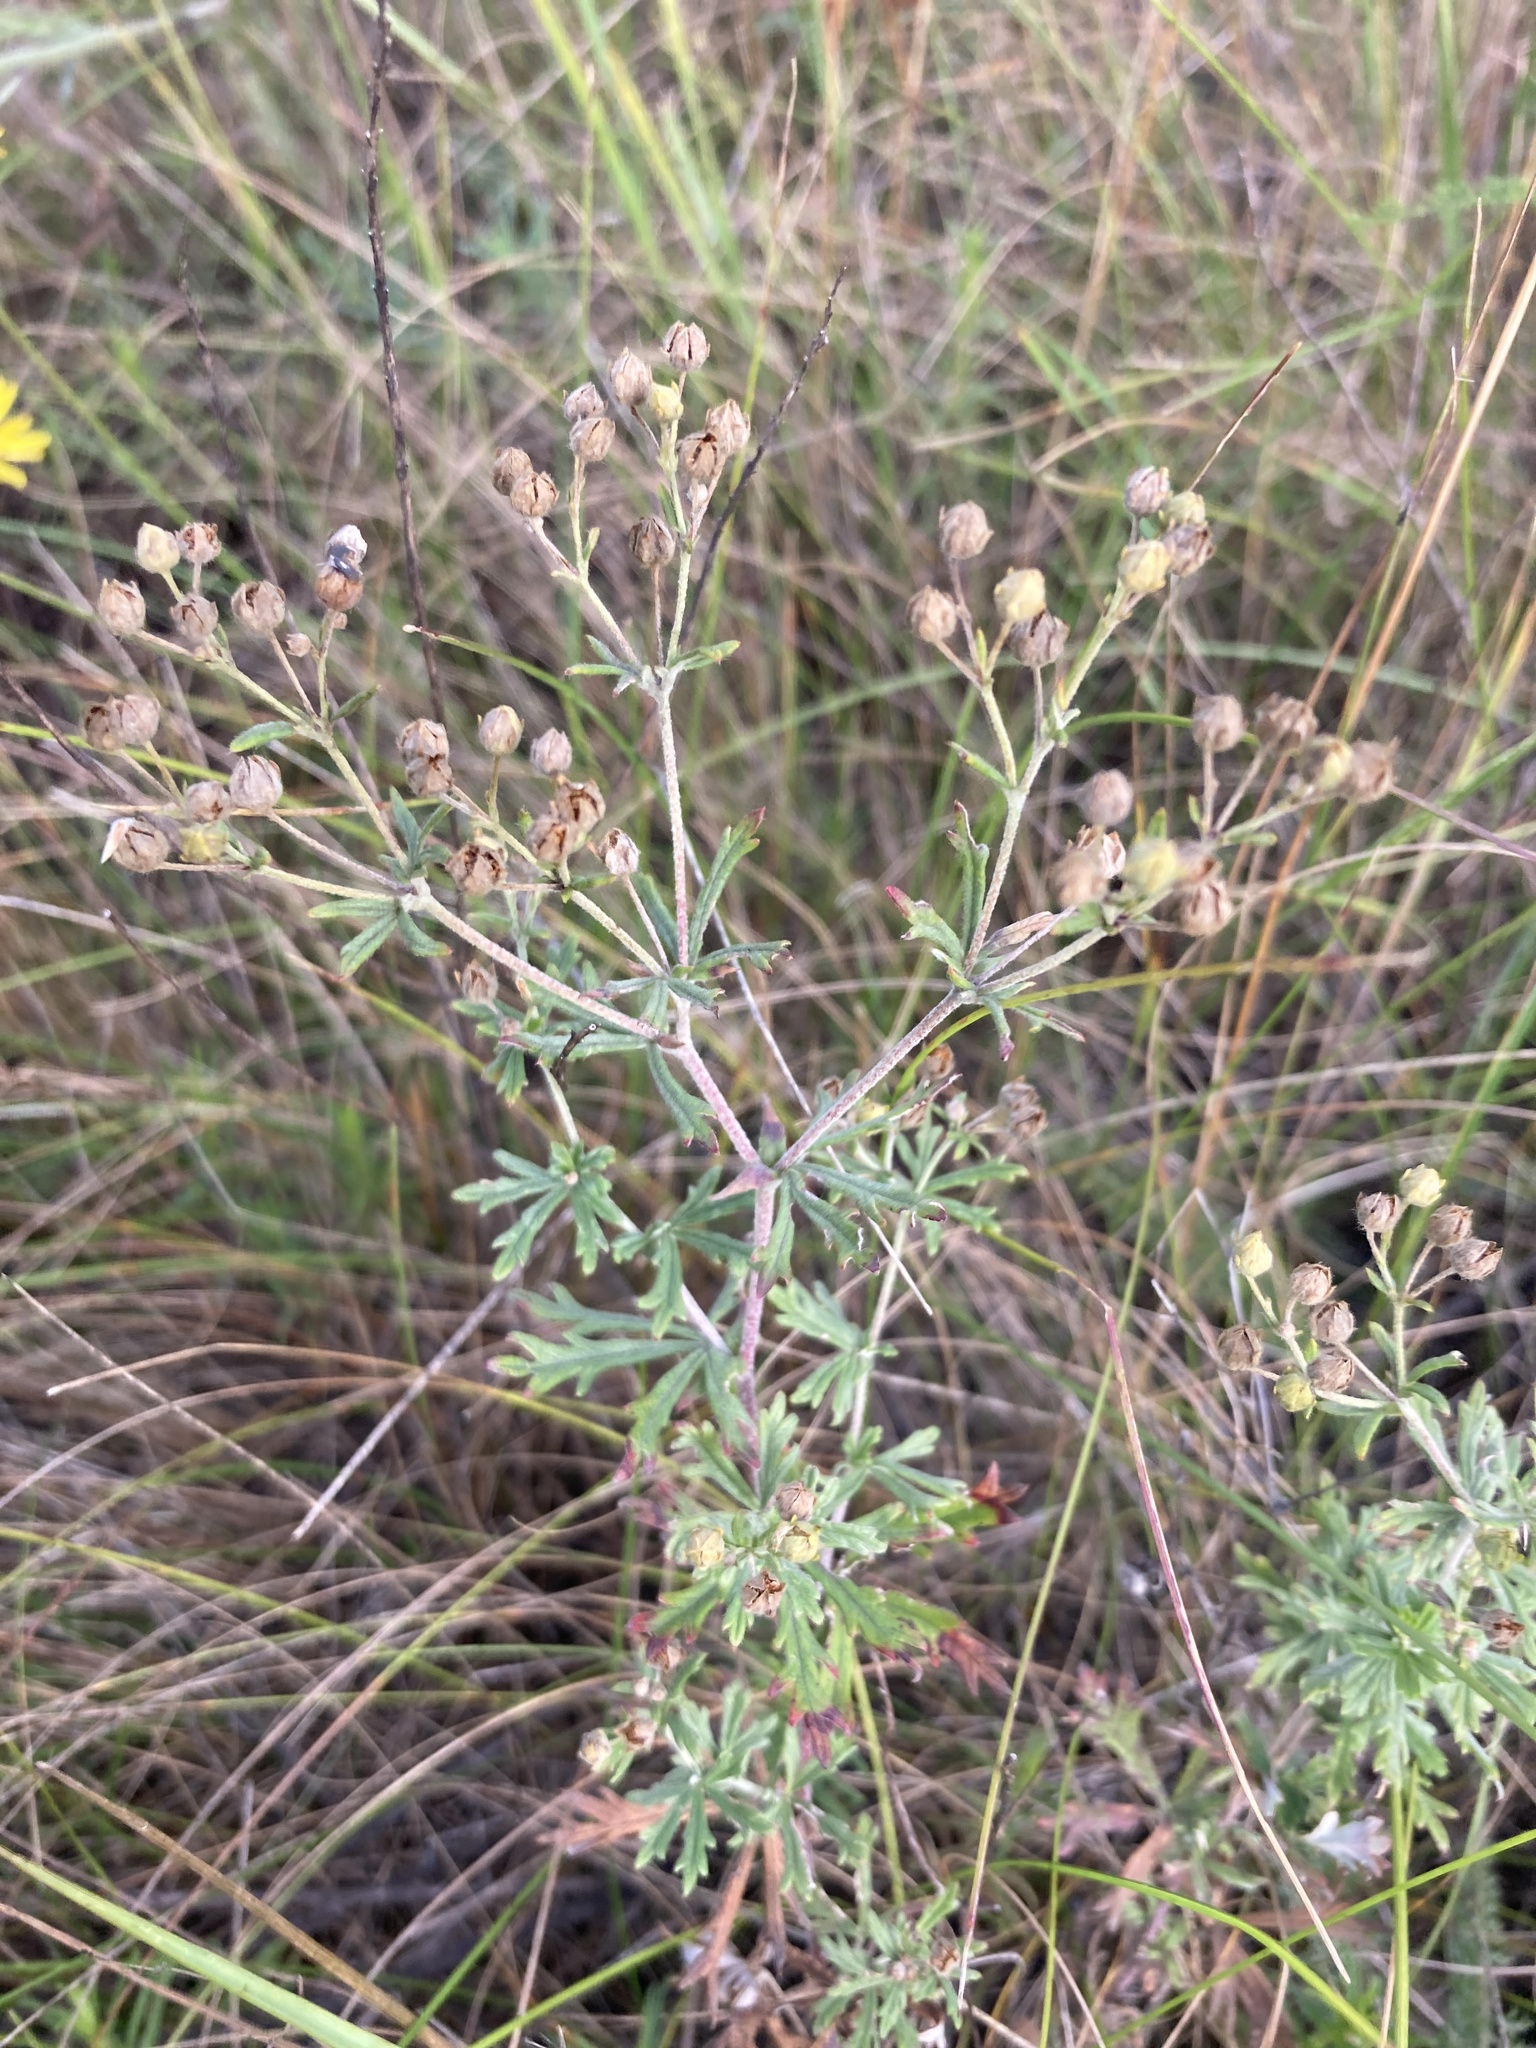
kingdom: Plantae
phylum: Tracheophyta
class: Magnoliopsida
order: Rosales
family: Rosaceae
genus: Potentilla
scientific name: Potentilla argentea
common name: Hoary cinquefoil
